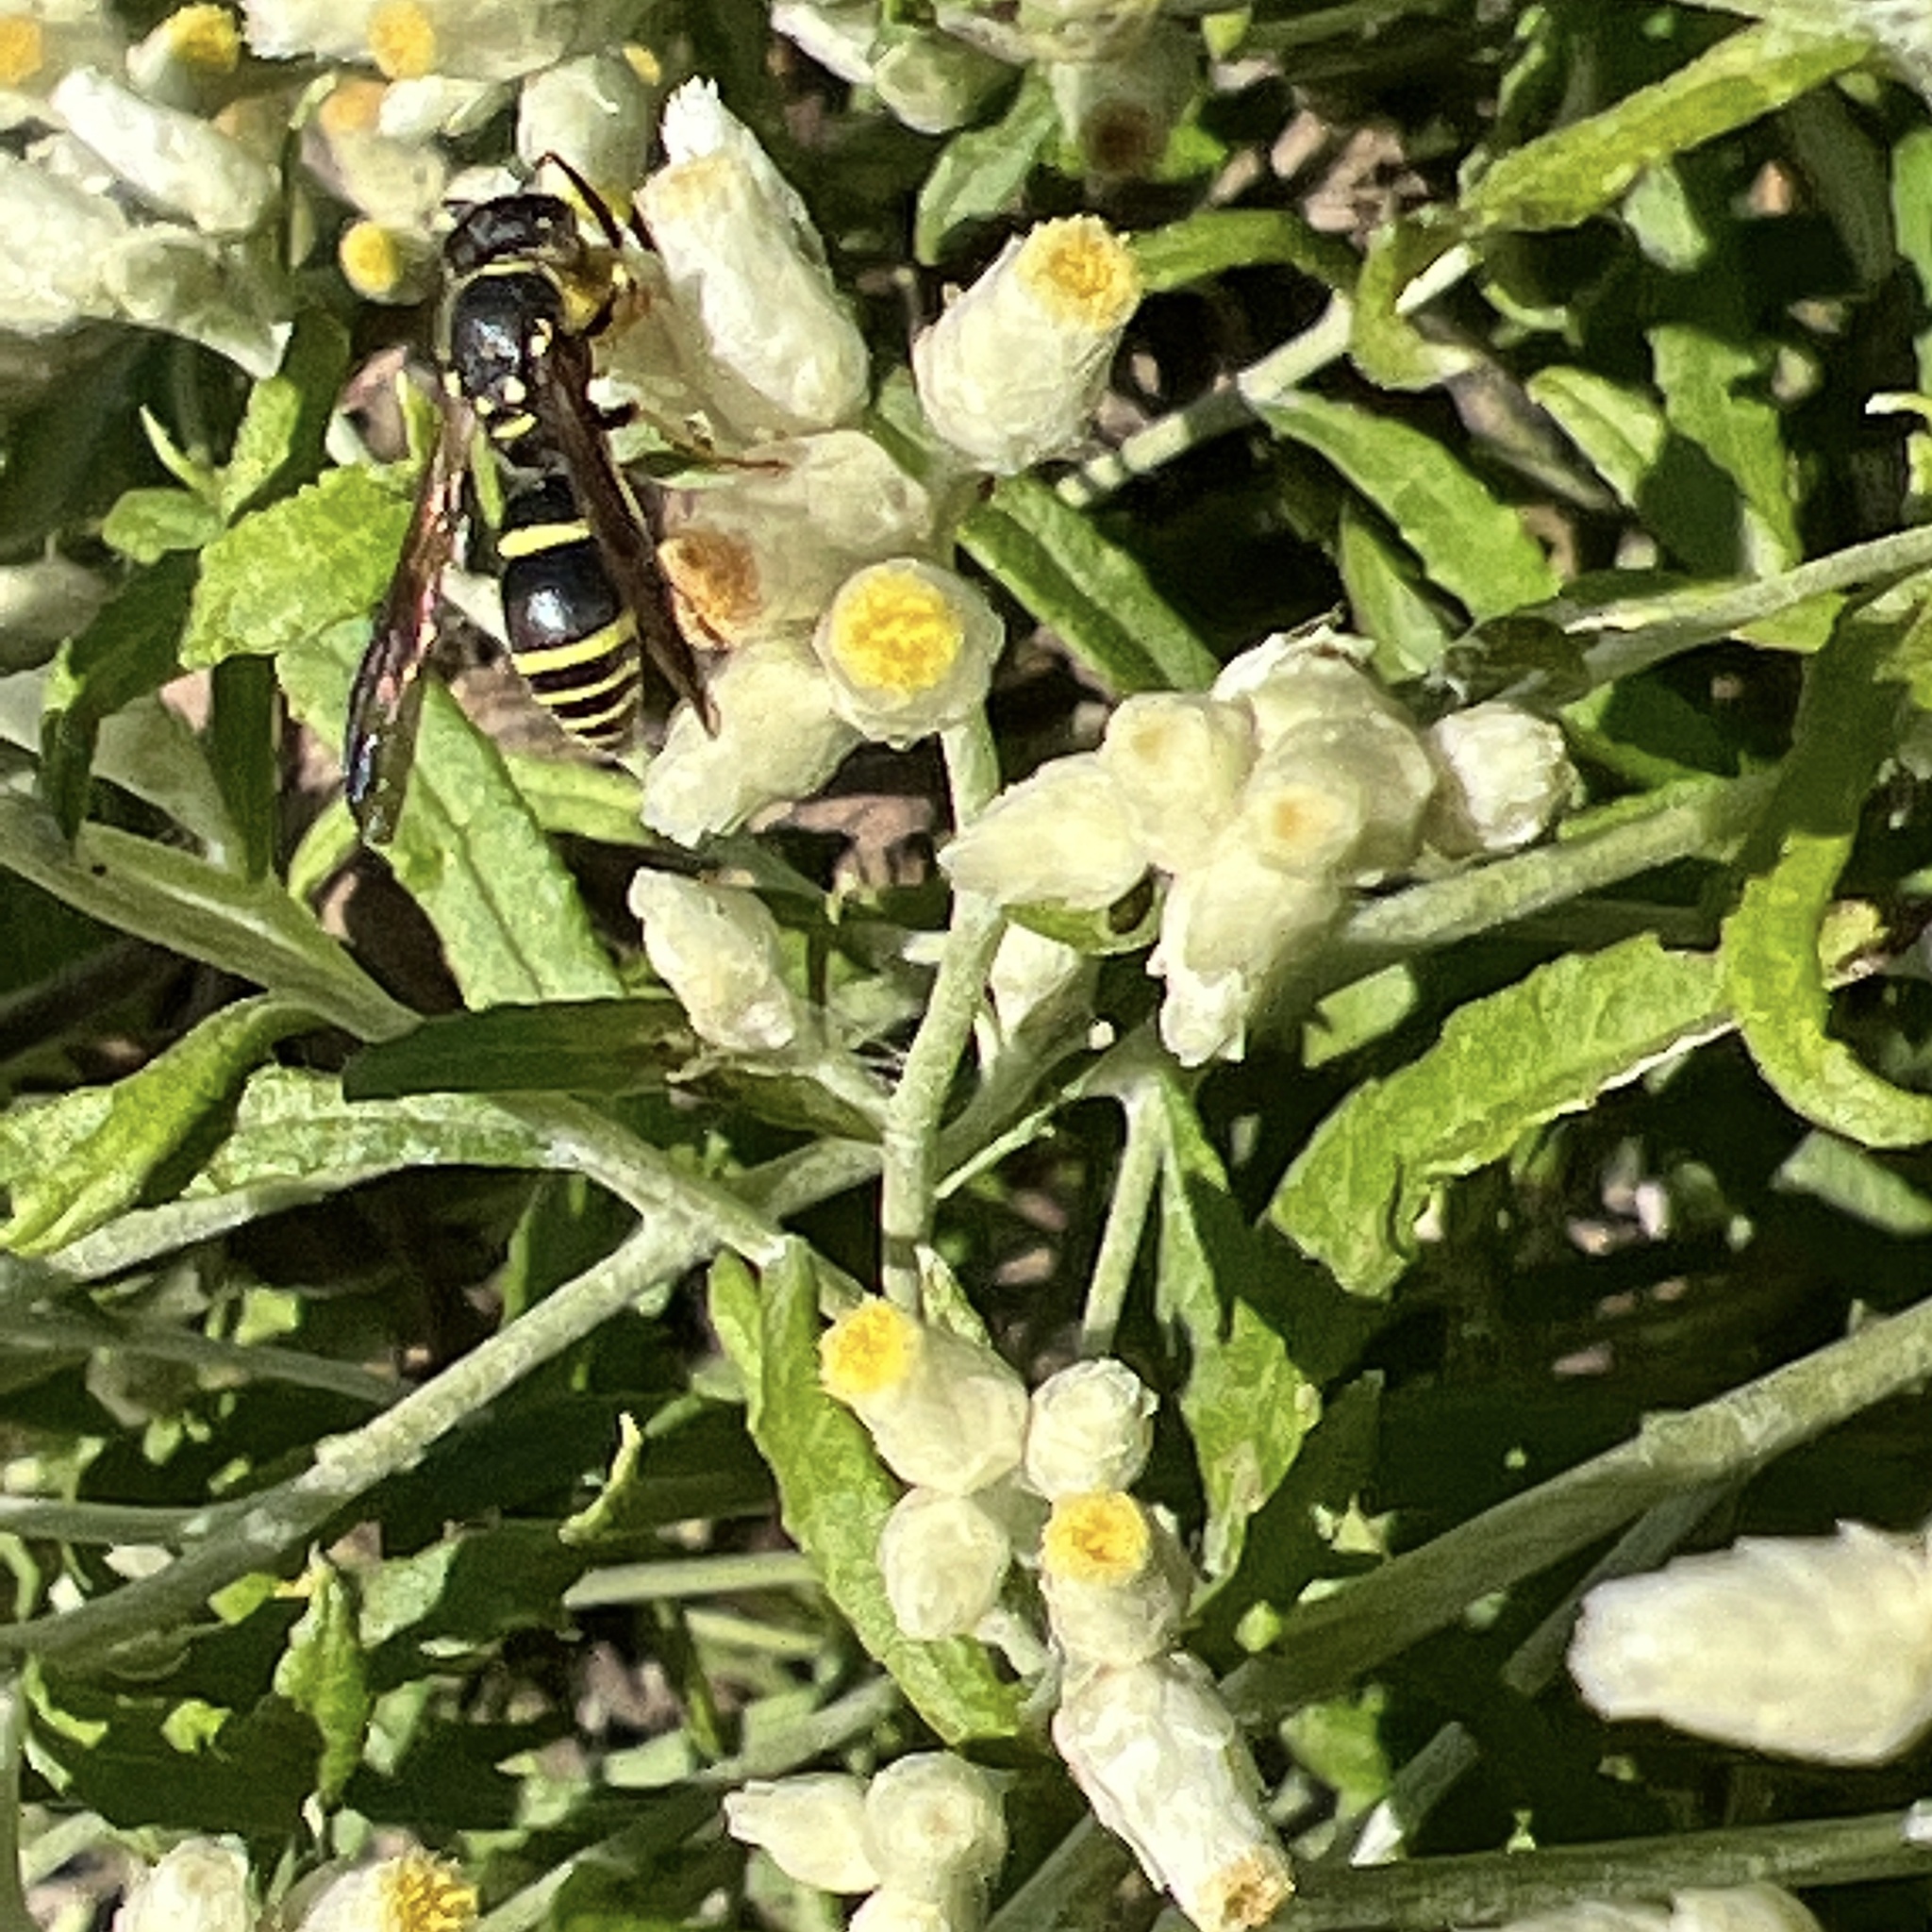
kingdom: Animalia
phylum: Arthropoda
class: Insecta
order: Hymenoptera
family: Vespidae
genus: Ancistrocerus
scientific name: Ancistrocerus adiabatus
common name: Bramble mason wasp
